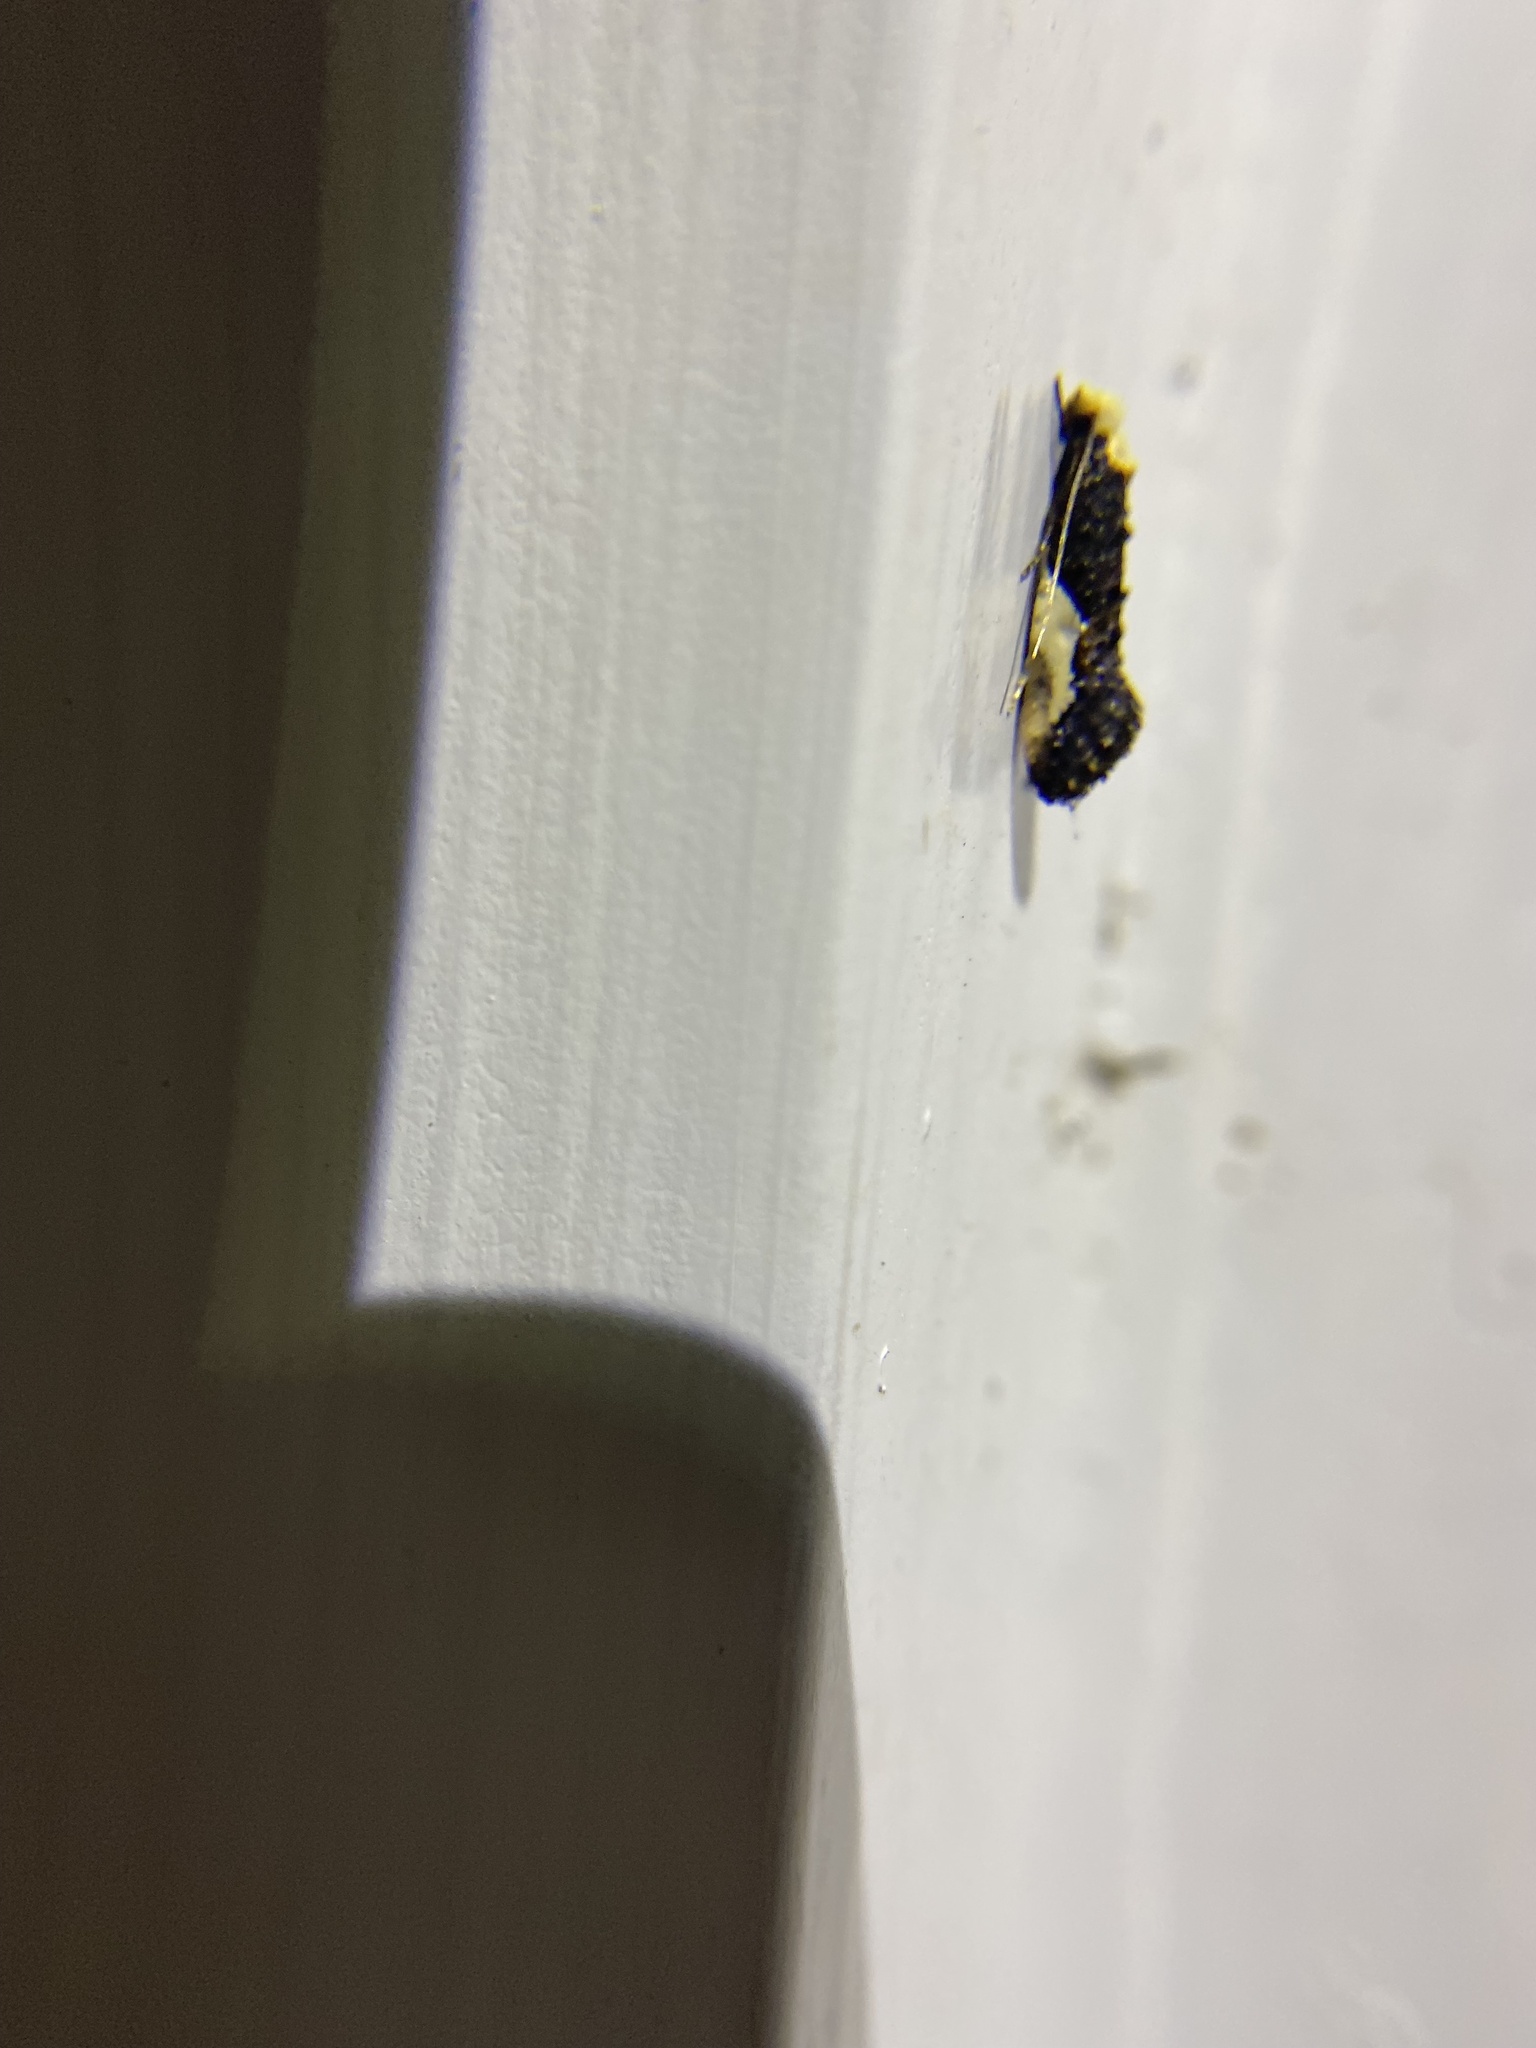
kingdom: Animalia
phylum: Arthropoda
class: Insecta
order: Lepidoptera
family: Tineidae
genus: Monopis
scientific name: Monopis longella
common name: Pavlovski's monopis moth
